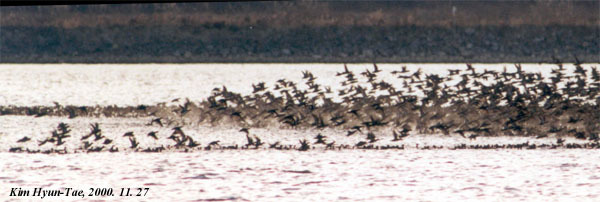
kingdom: Animalia
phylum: Chordata
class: Aves
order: Anseriformes
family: Anatidae
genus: Sibirionetta
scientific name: Sibirionetta formosa
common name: Baikal teal
